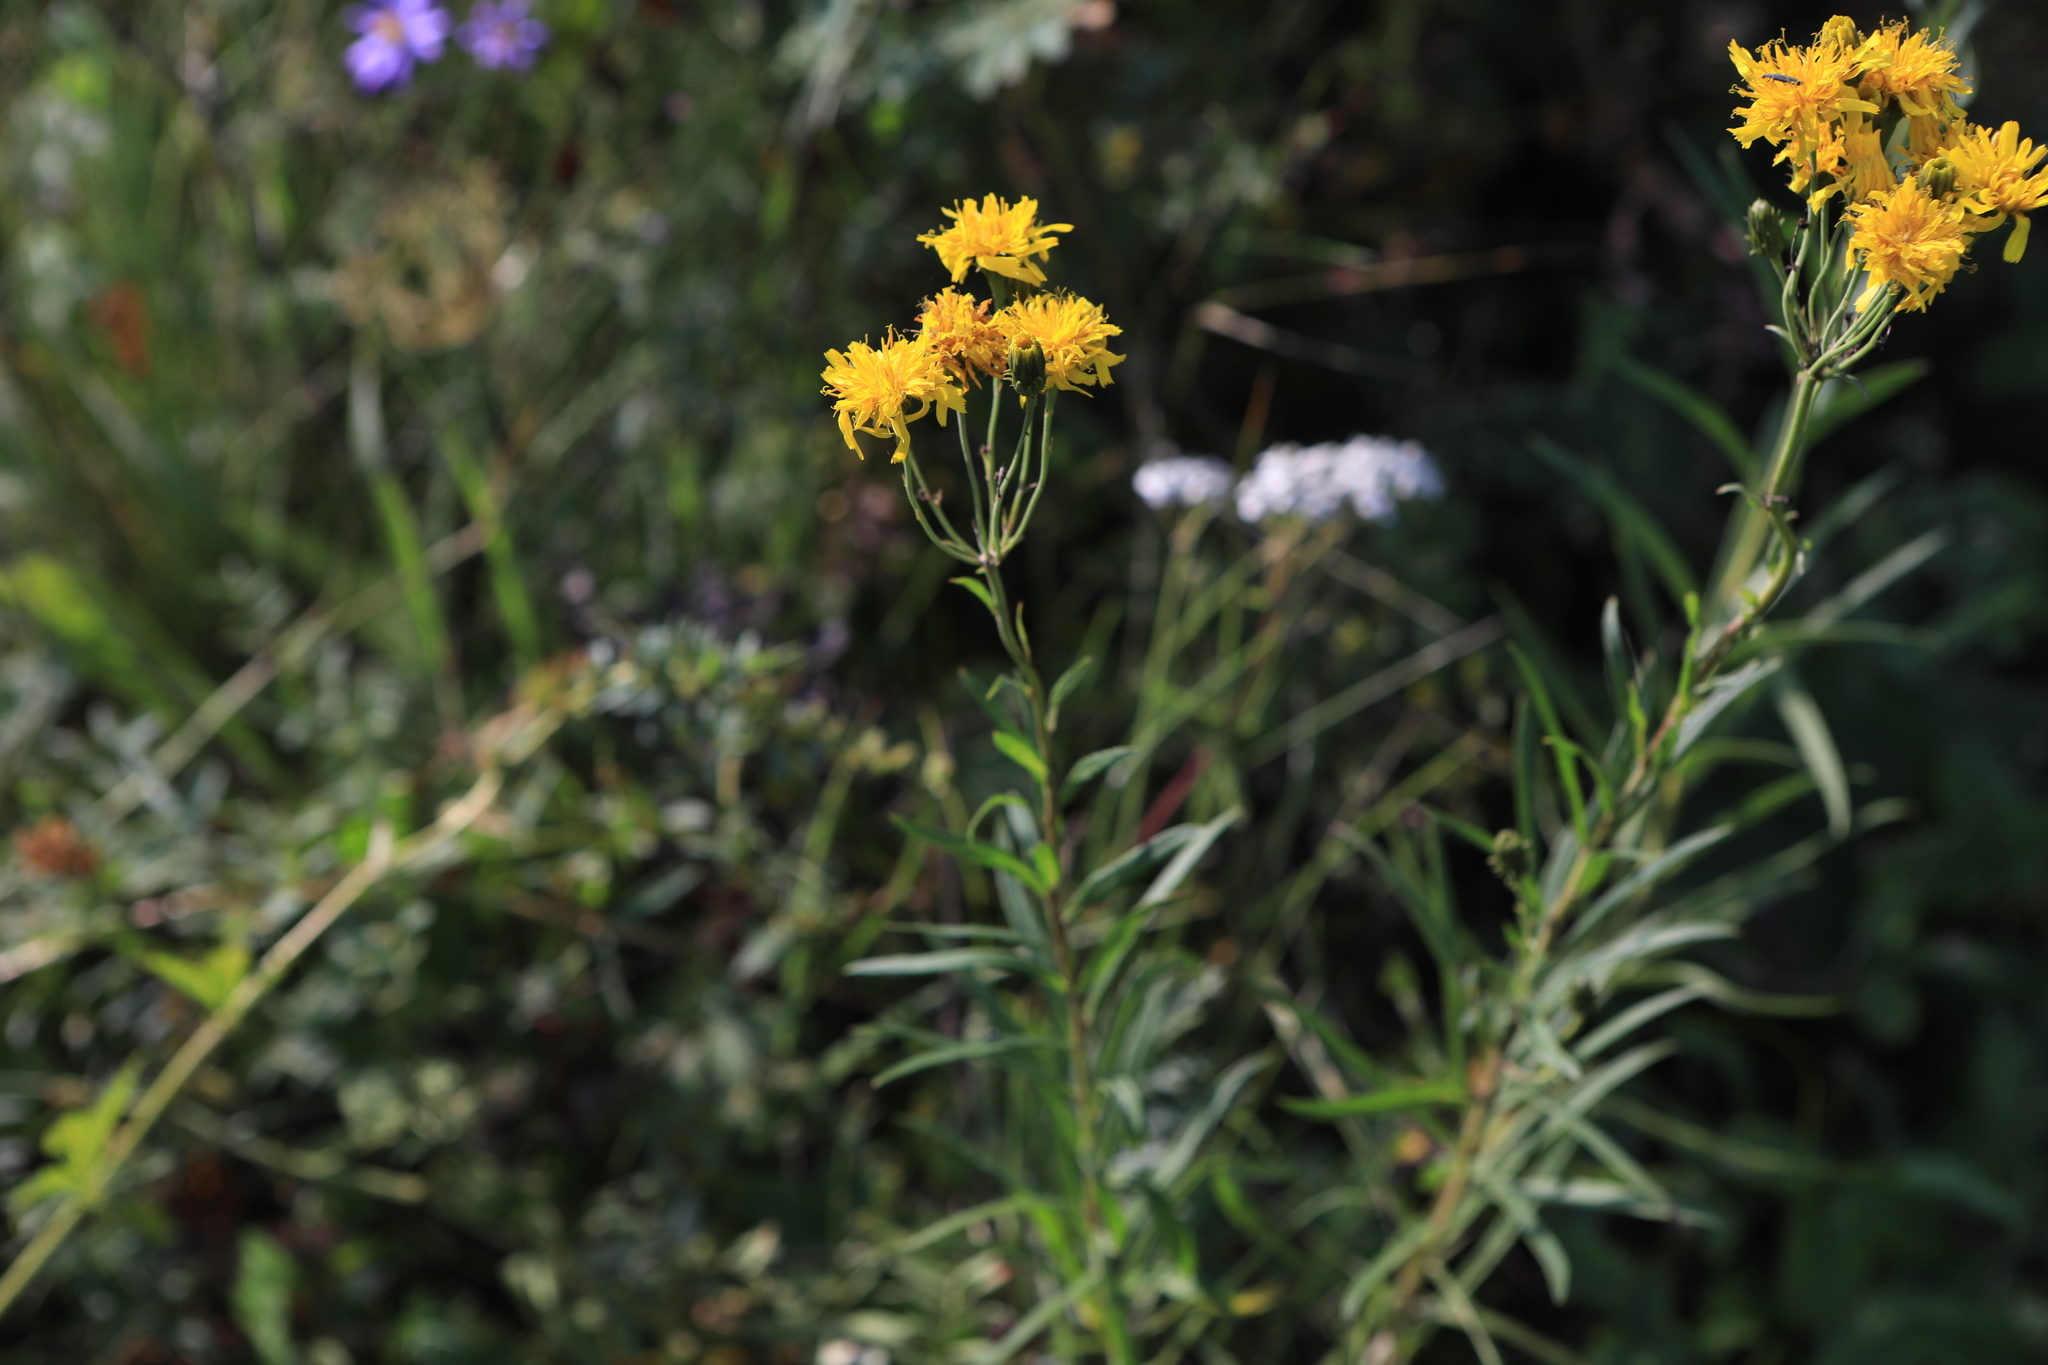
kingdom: Plantae
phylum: Tracheophyta
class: Magnoliopsida
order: Asterales
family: Asteraceae
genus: Hieracium
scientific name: Hieracium umbellatum
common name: Northern hawkweed
